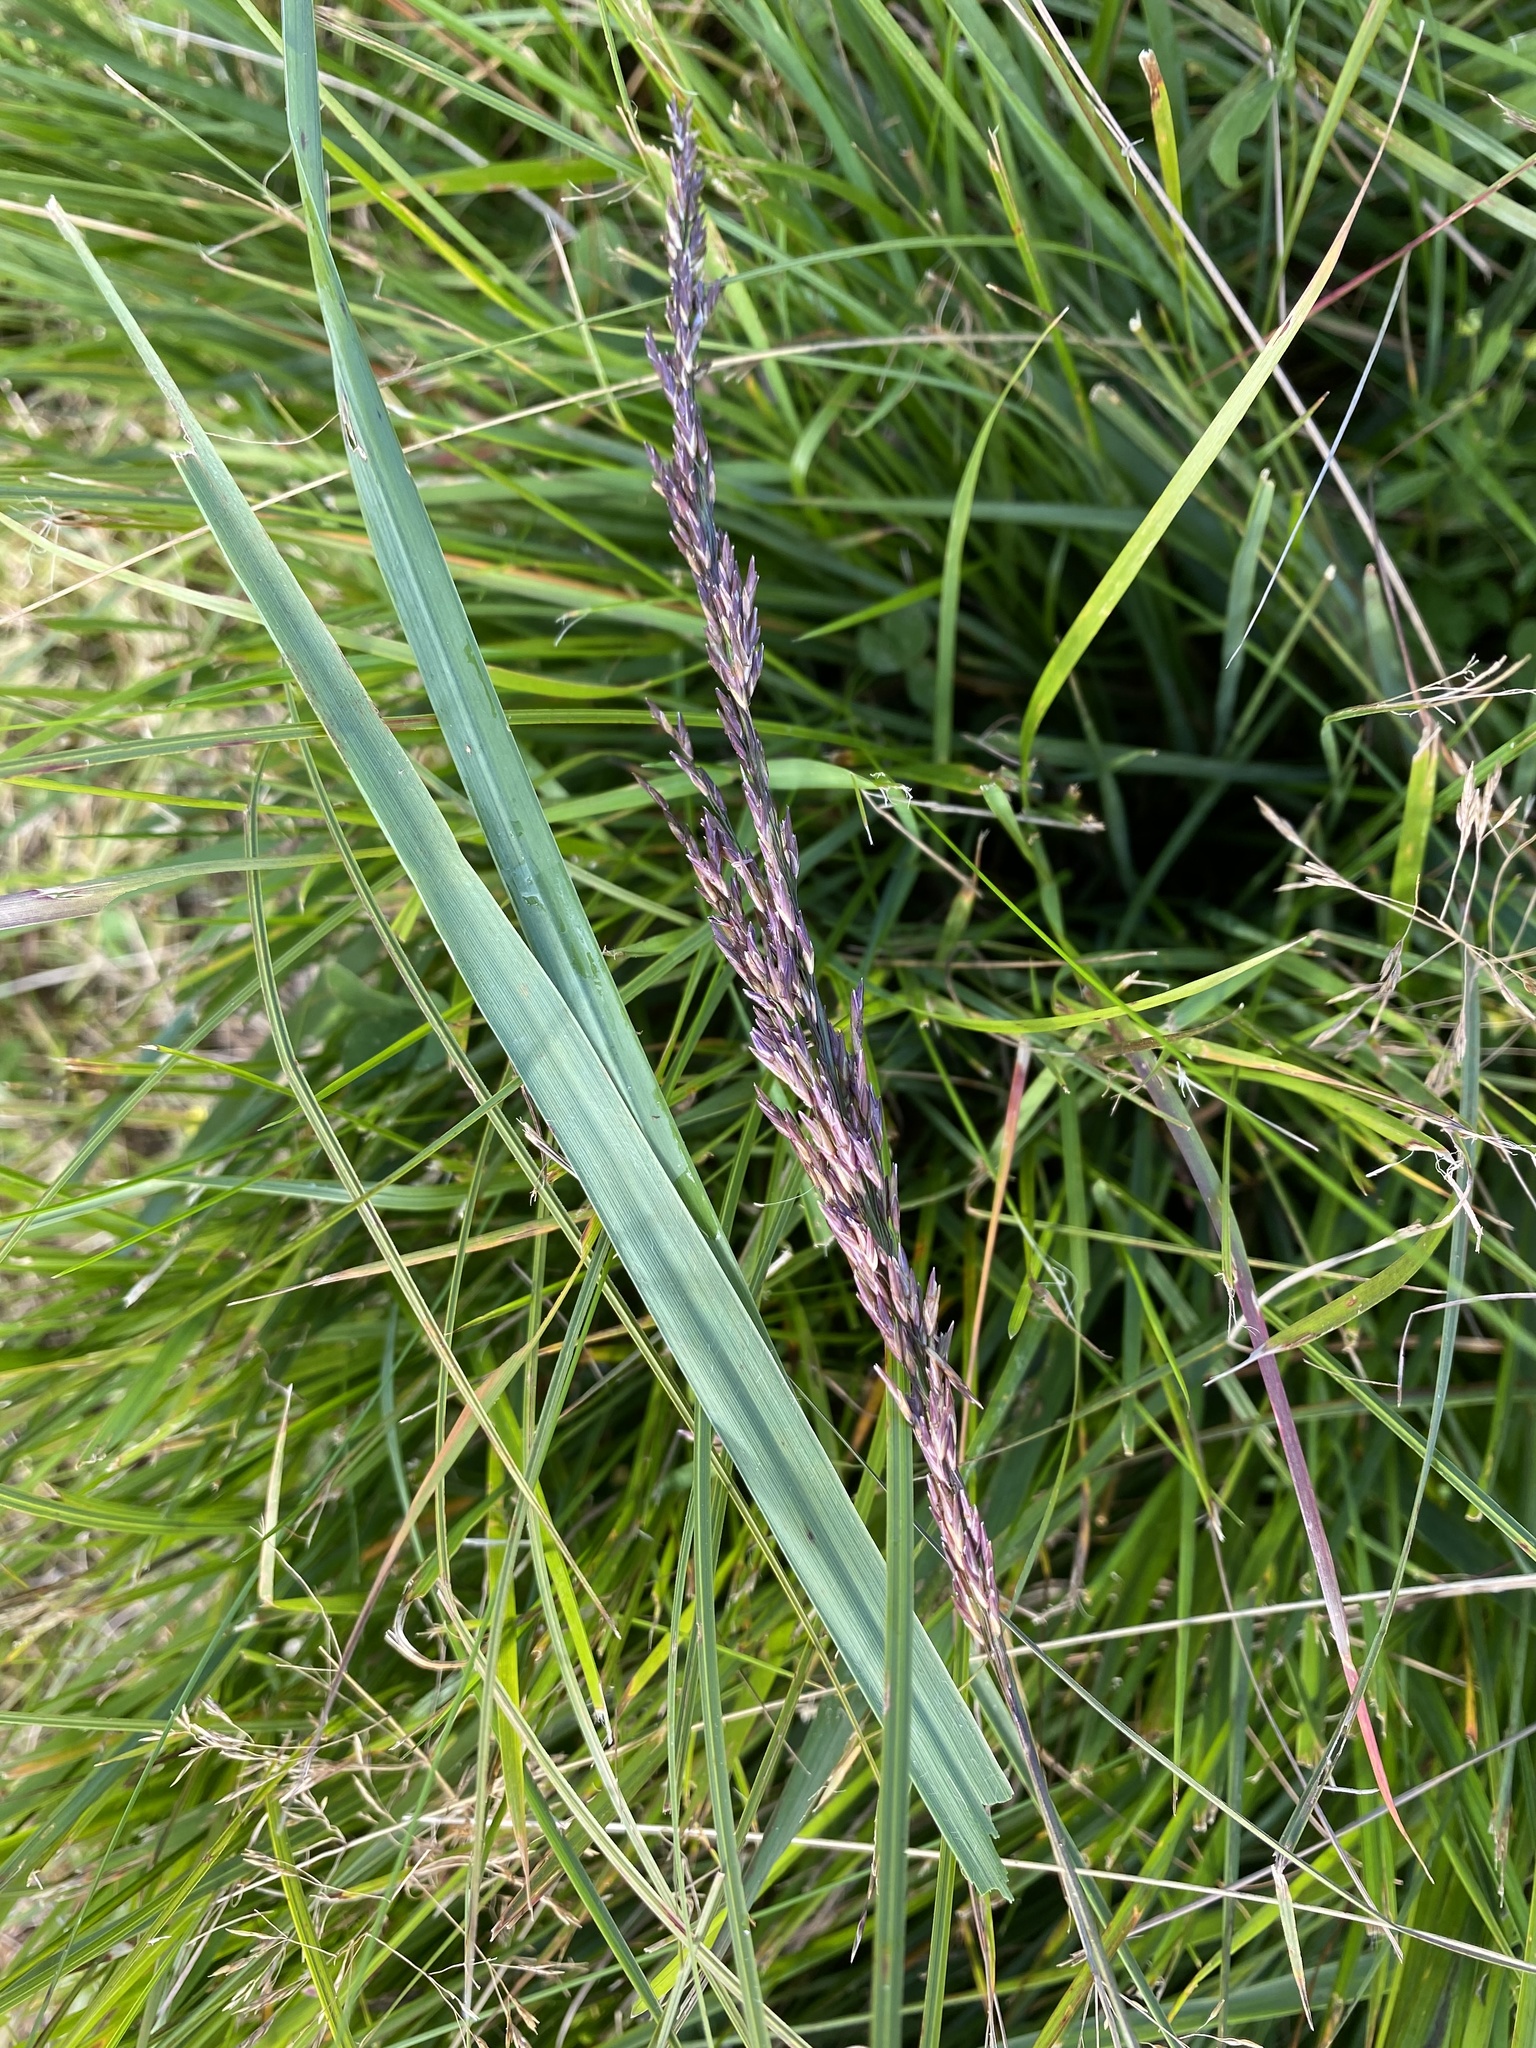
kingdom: Plantae
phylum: Tracheophyta
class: Liliopsida
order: Poales
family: Poaceae
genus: Molinia
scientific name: Molinia caerulea
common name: Purple moor-grass
